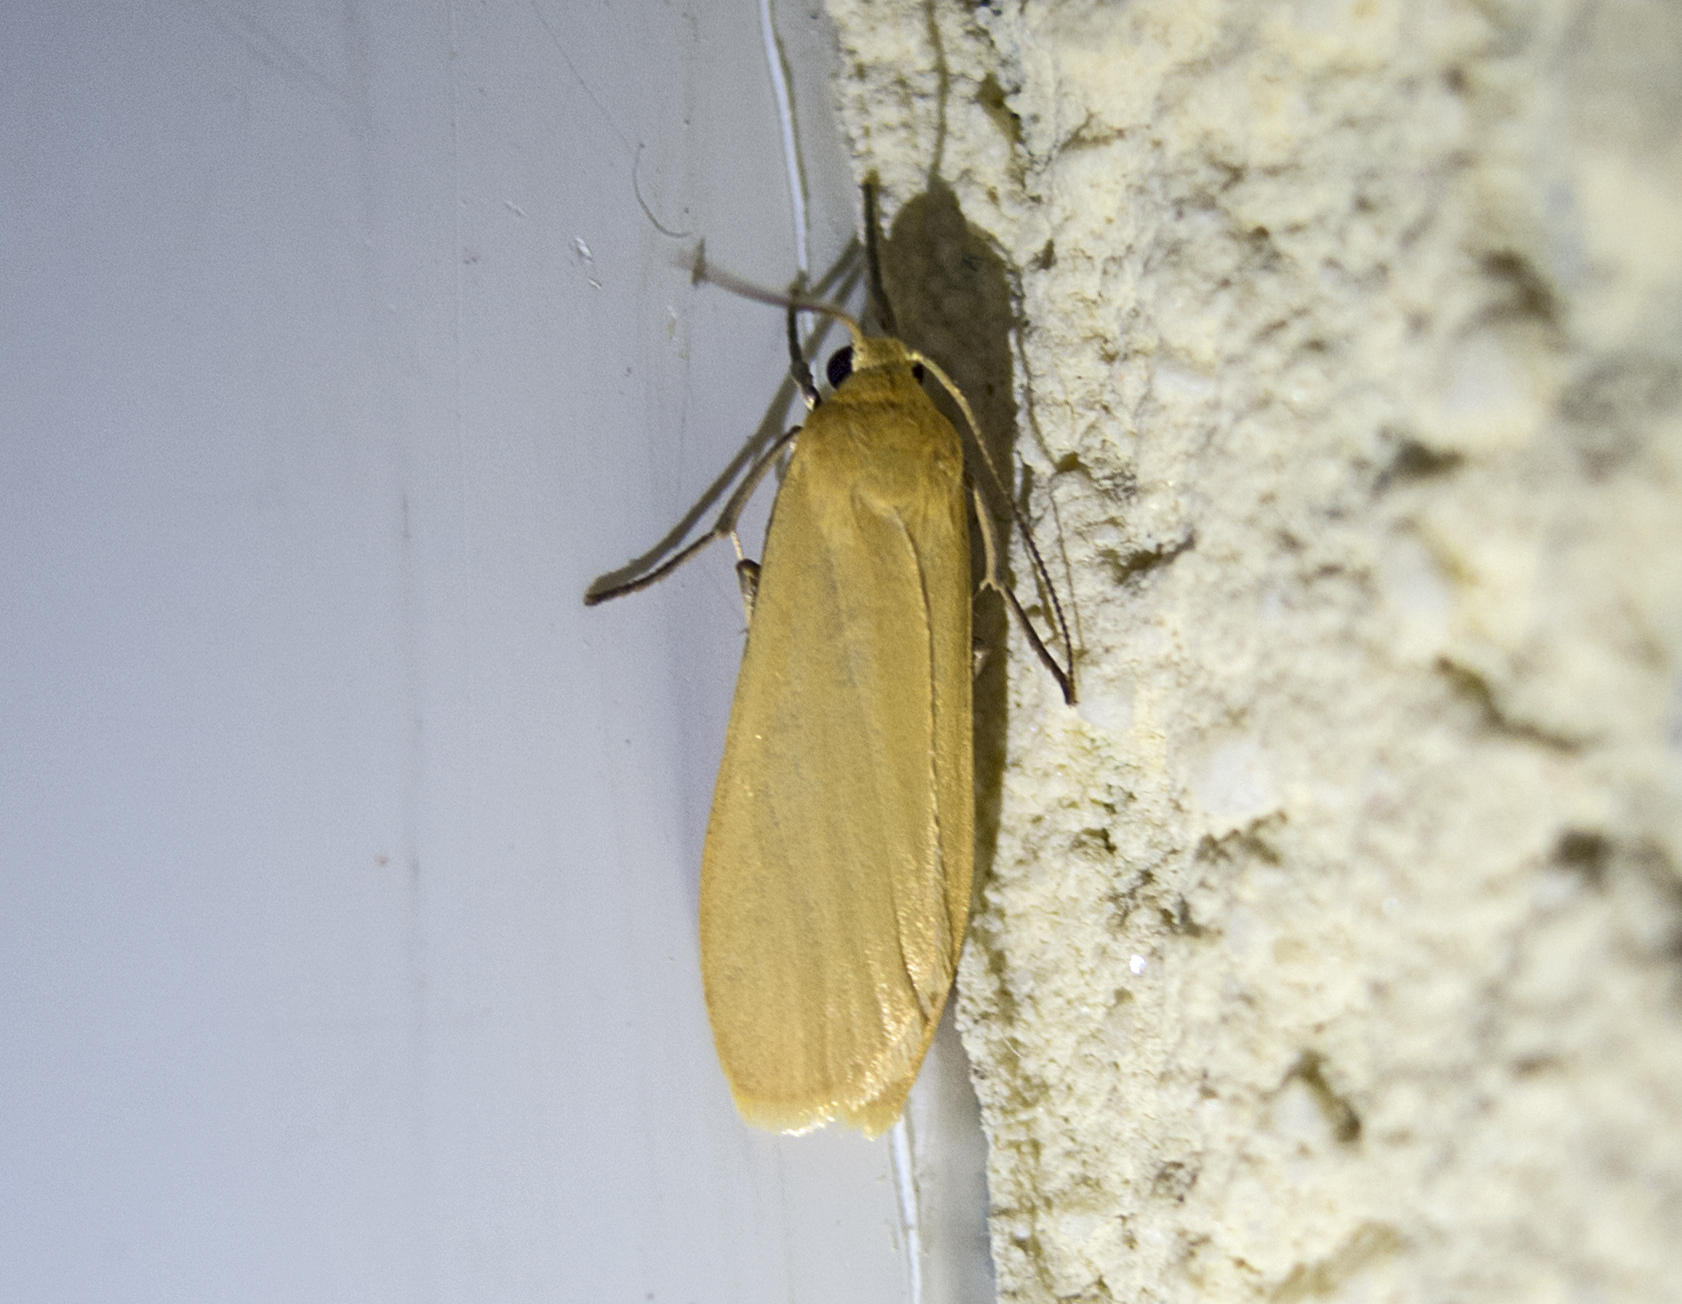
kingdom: Animalia
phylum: Arthropoda
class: Insecta
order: Lepidoptera
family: Erebidae
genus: Wittia
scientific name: Wittia sororcula
